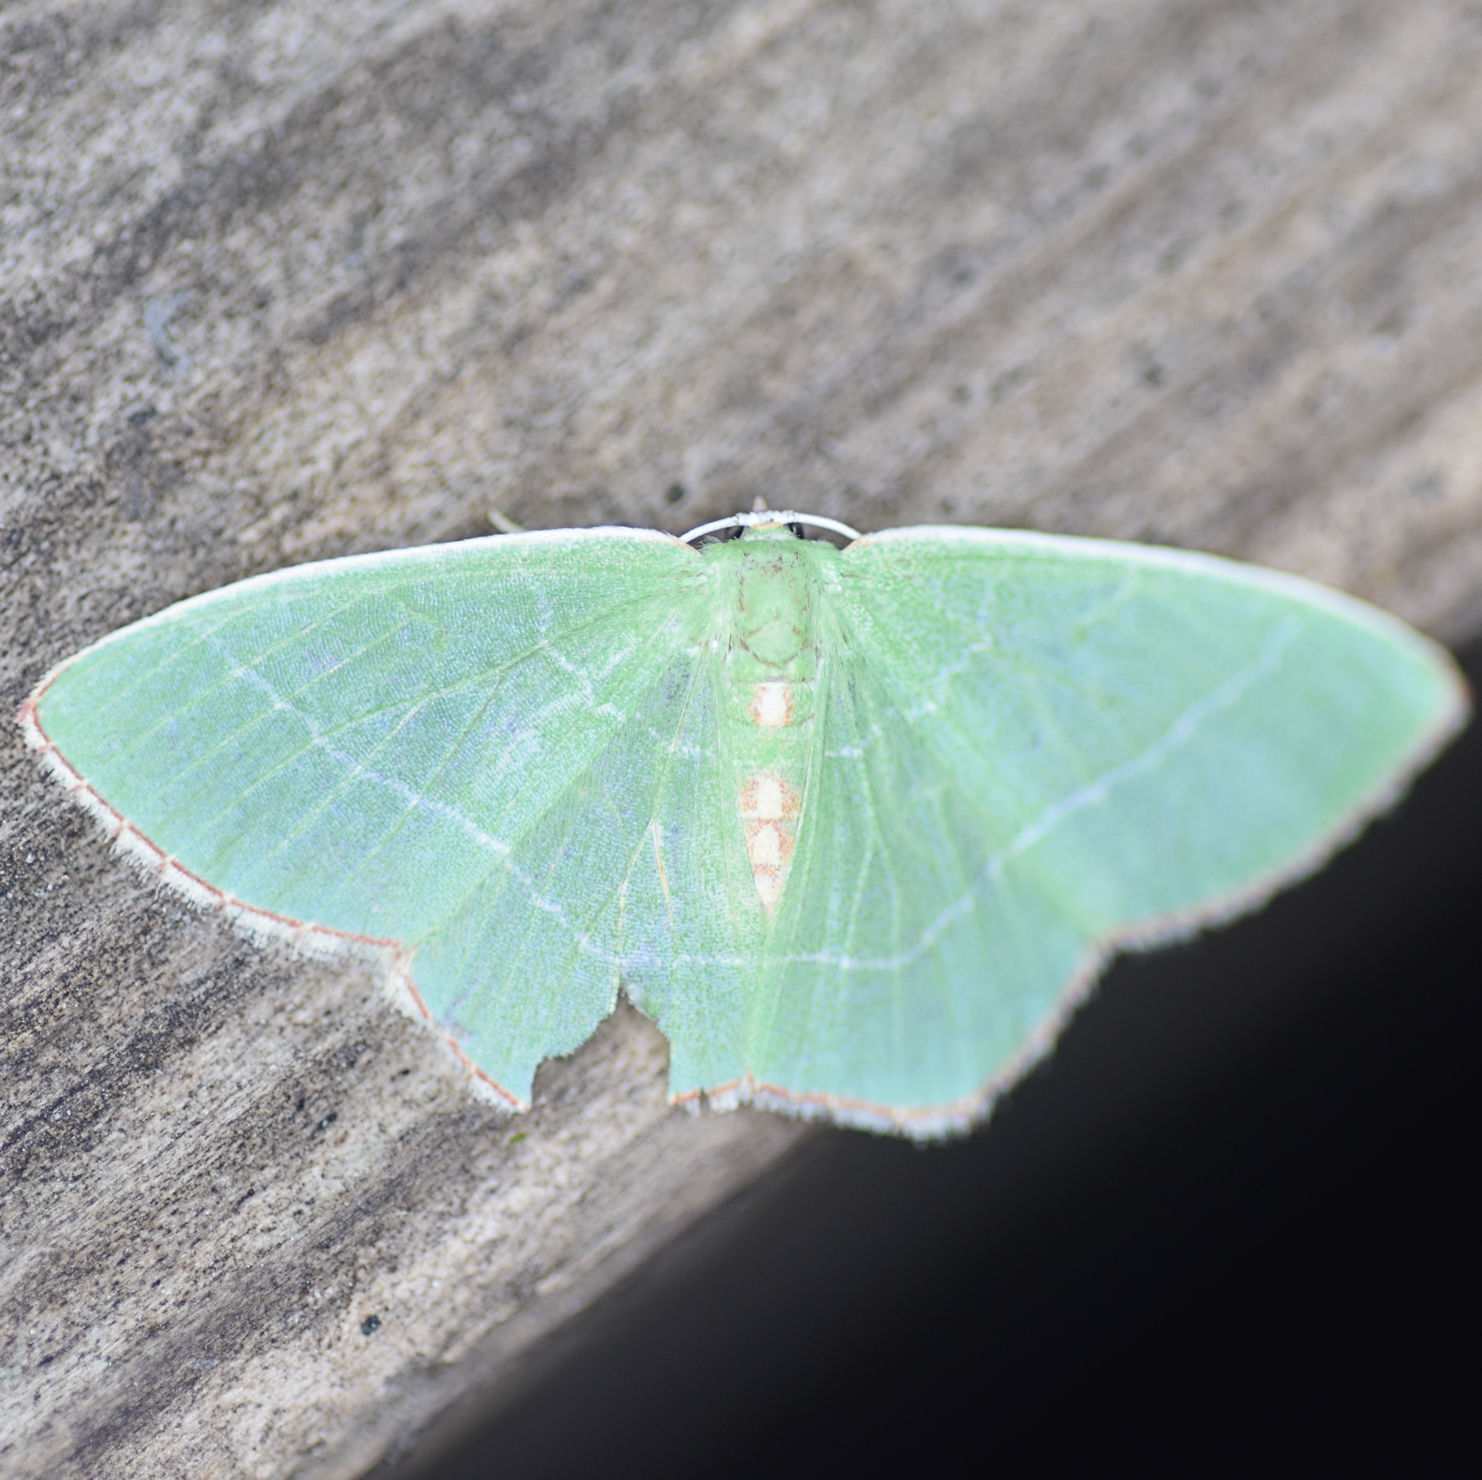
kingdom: Animalia
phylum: Arthropoda
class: Insecta
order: Lepidoptera
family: Geometridae
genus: Nemoria
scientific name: Nemoria bistriaria
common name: Red-fringed emerald
